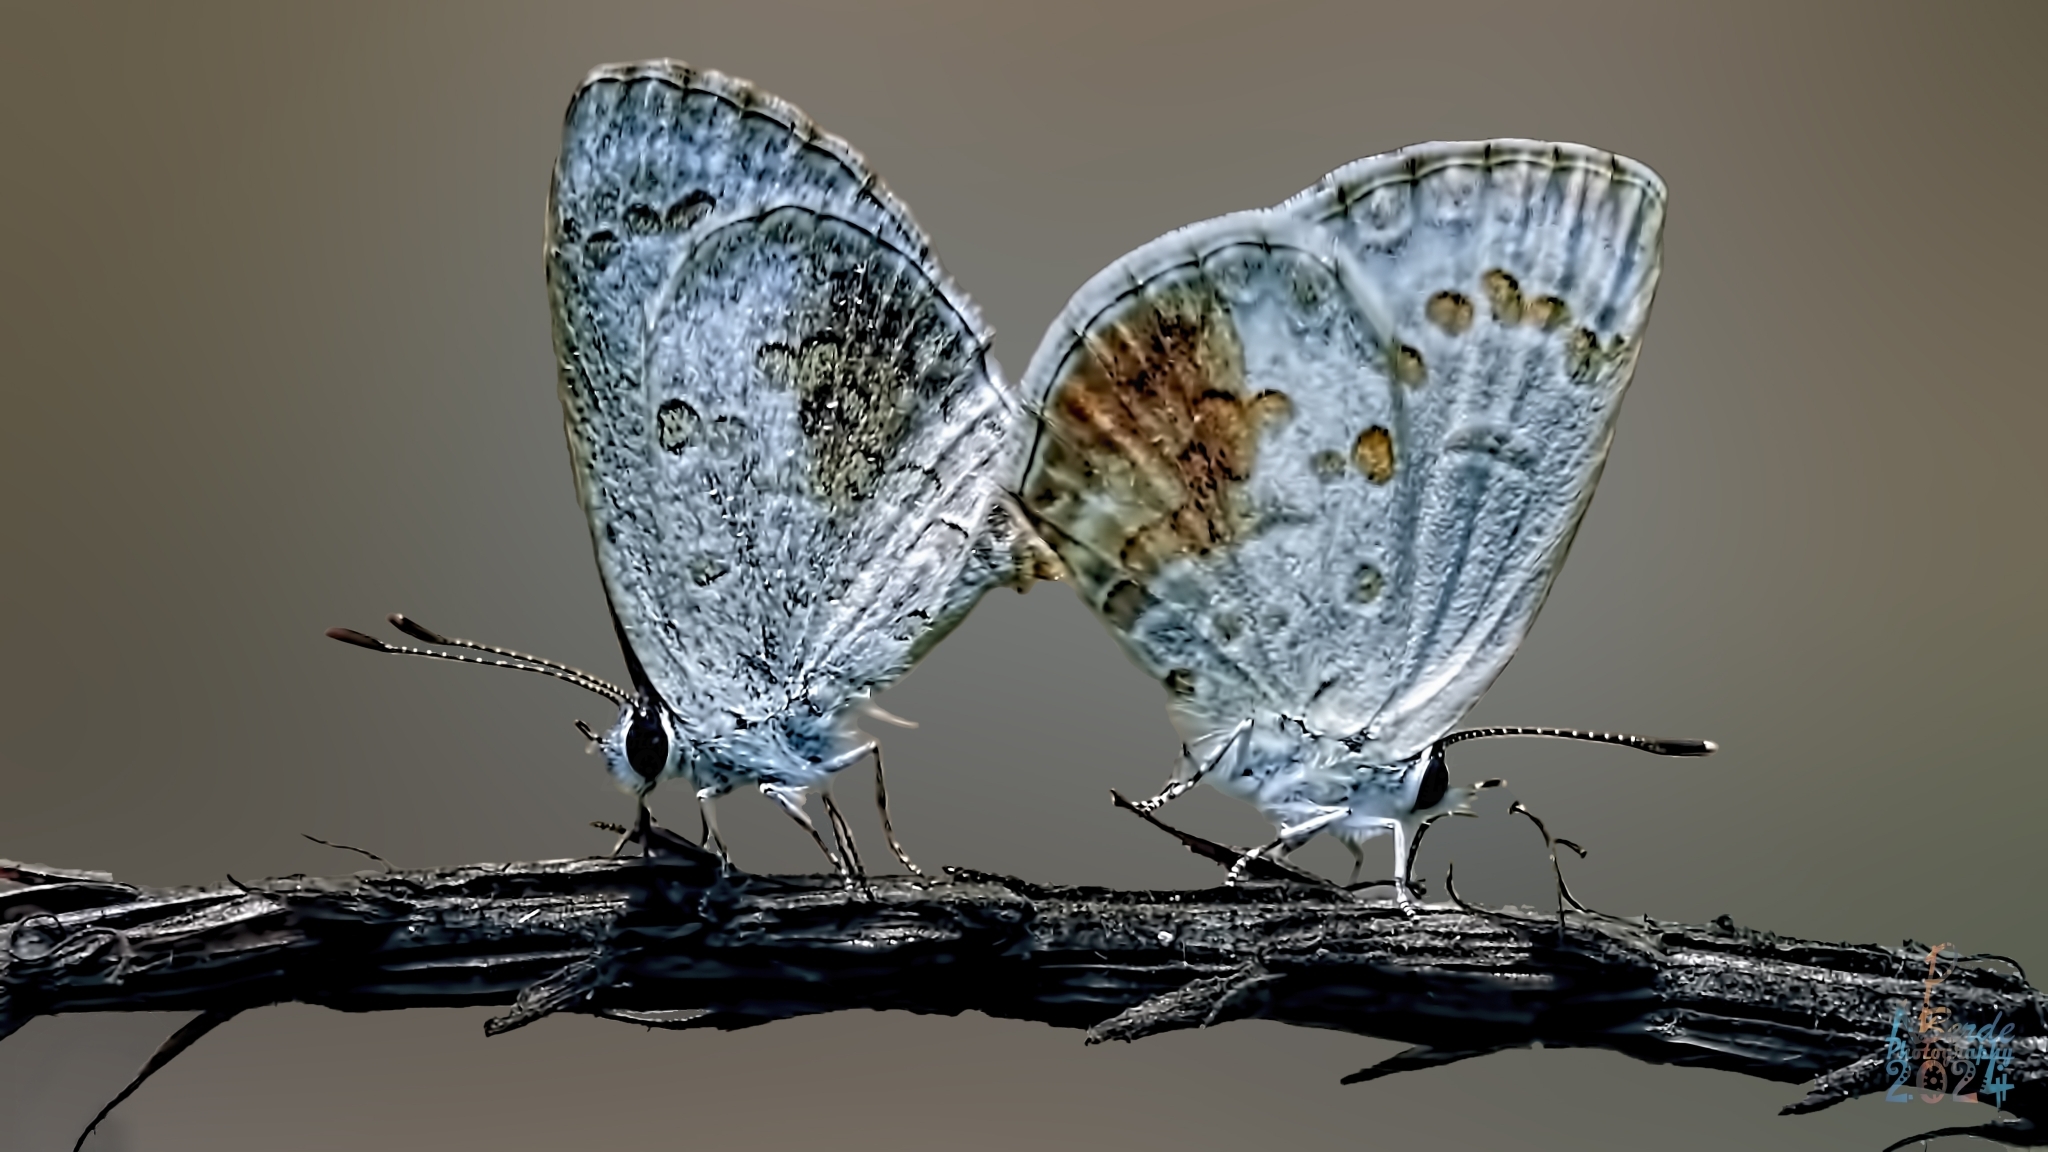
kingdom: Animalia
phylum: Arthropoda
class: Insecta
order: Lepidoptera
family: Lycaenidae
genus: Chilades
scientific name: Chilades laius
